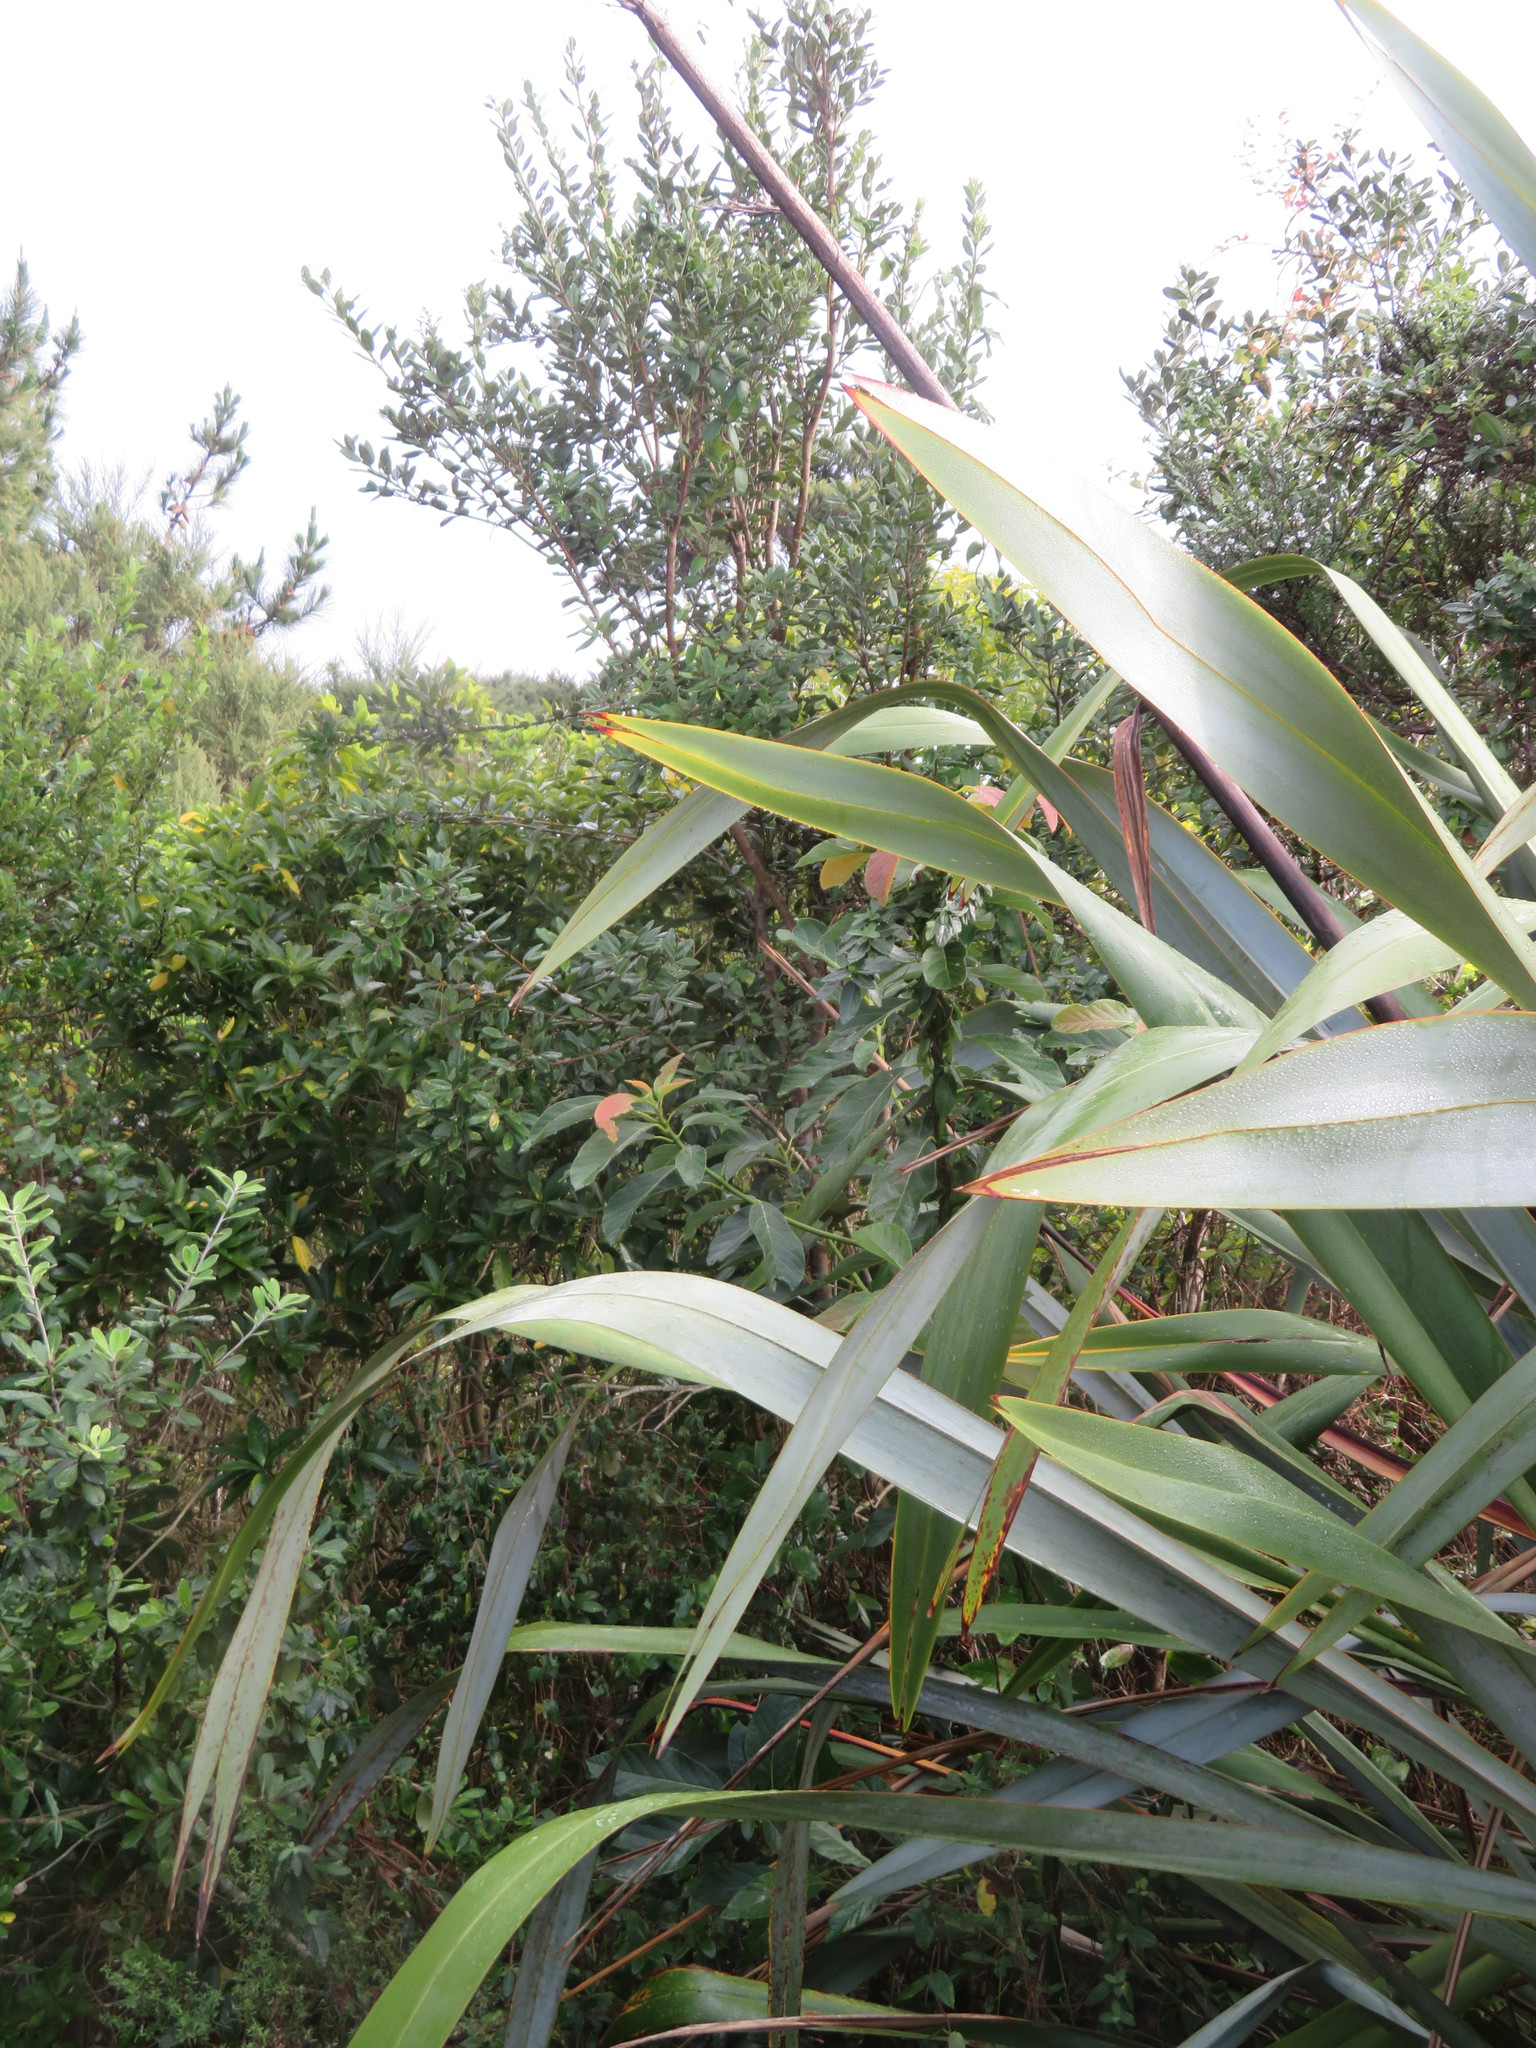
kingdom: Plantae
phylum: Tracheophyta
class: Magnoliopsida
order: Laurales
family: Lauraceae
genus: Persea
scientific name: Persea americana
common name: Avocado
